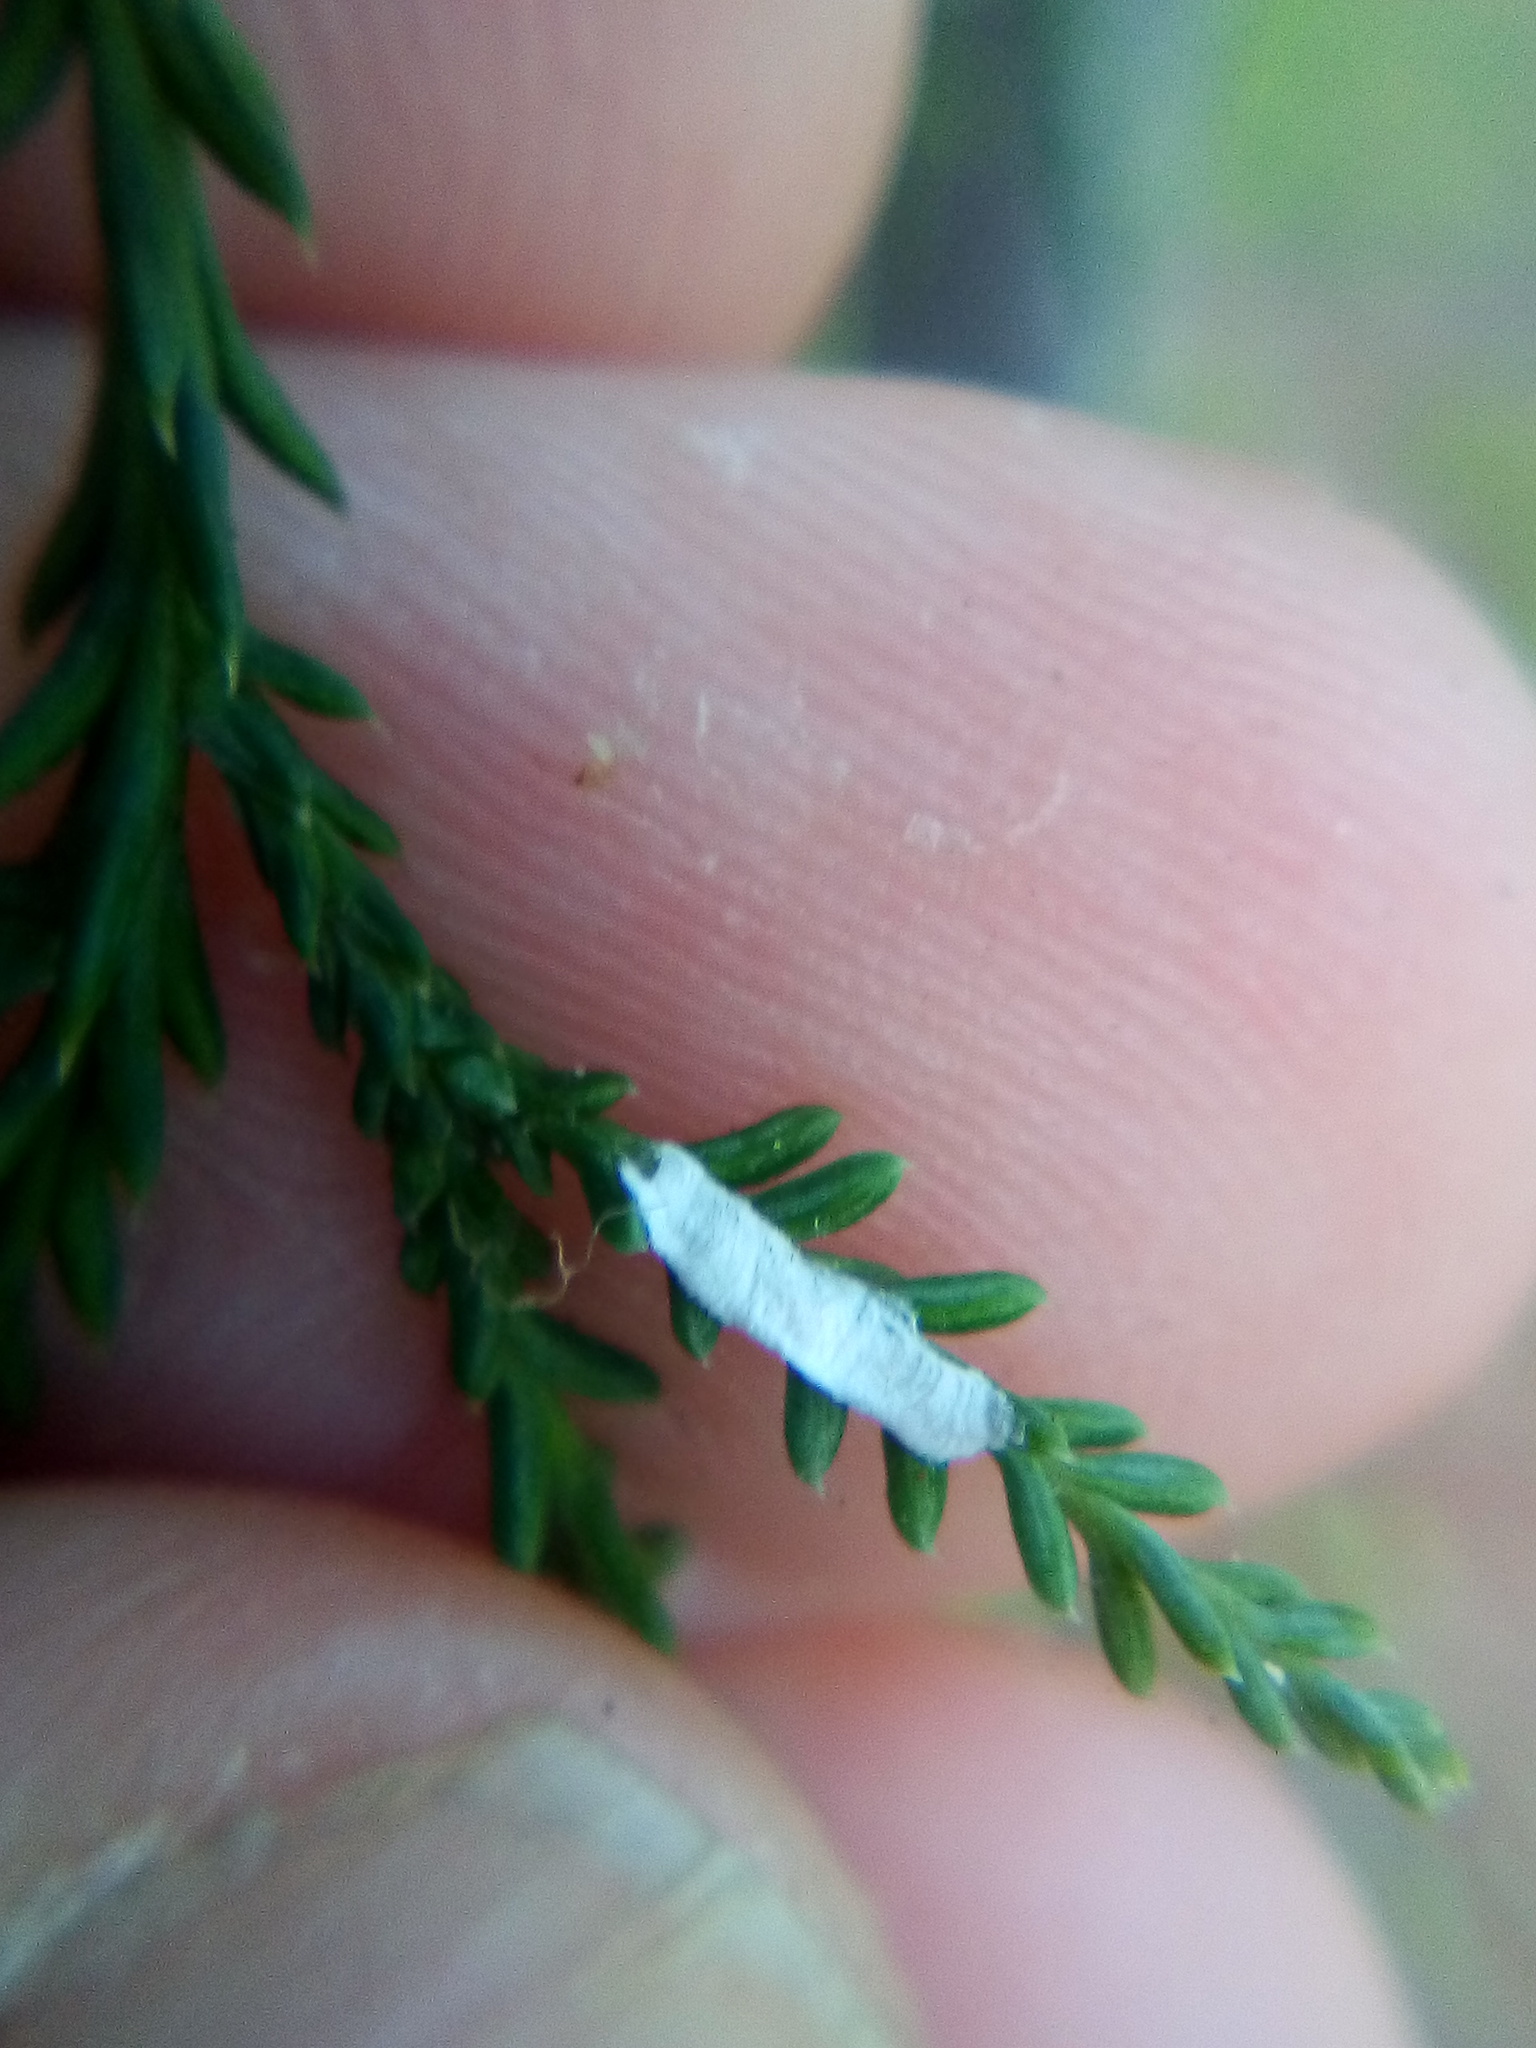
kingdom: Animalia
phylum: Arthropoda
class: Insecta
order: Hemiptera
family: Pseudococcidae
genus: Paraferrisia
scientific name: Paraferrisia podocarpi
